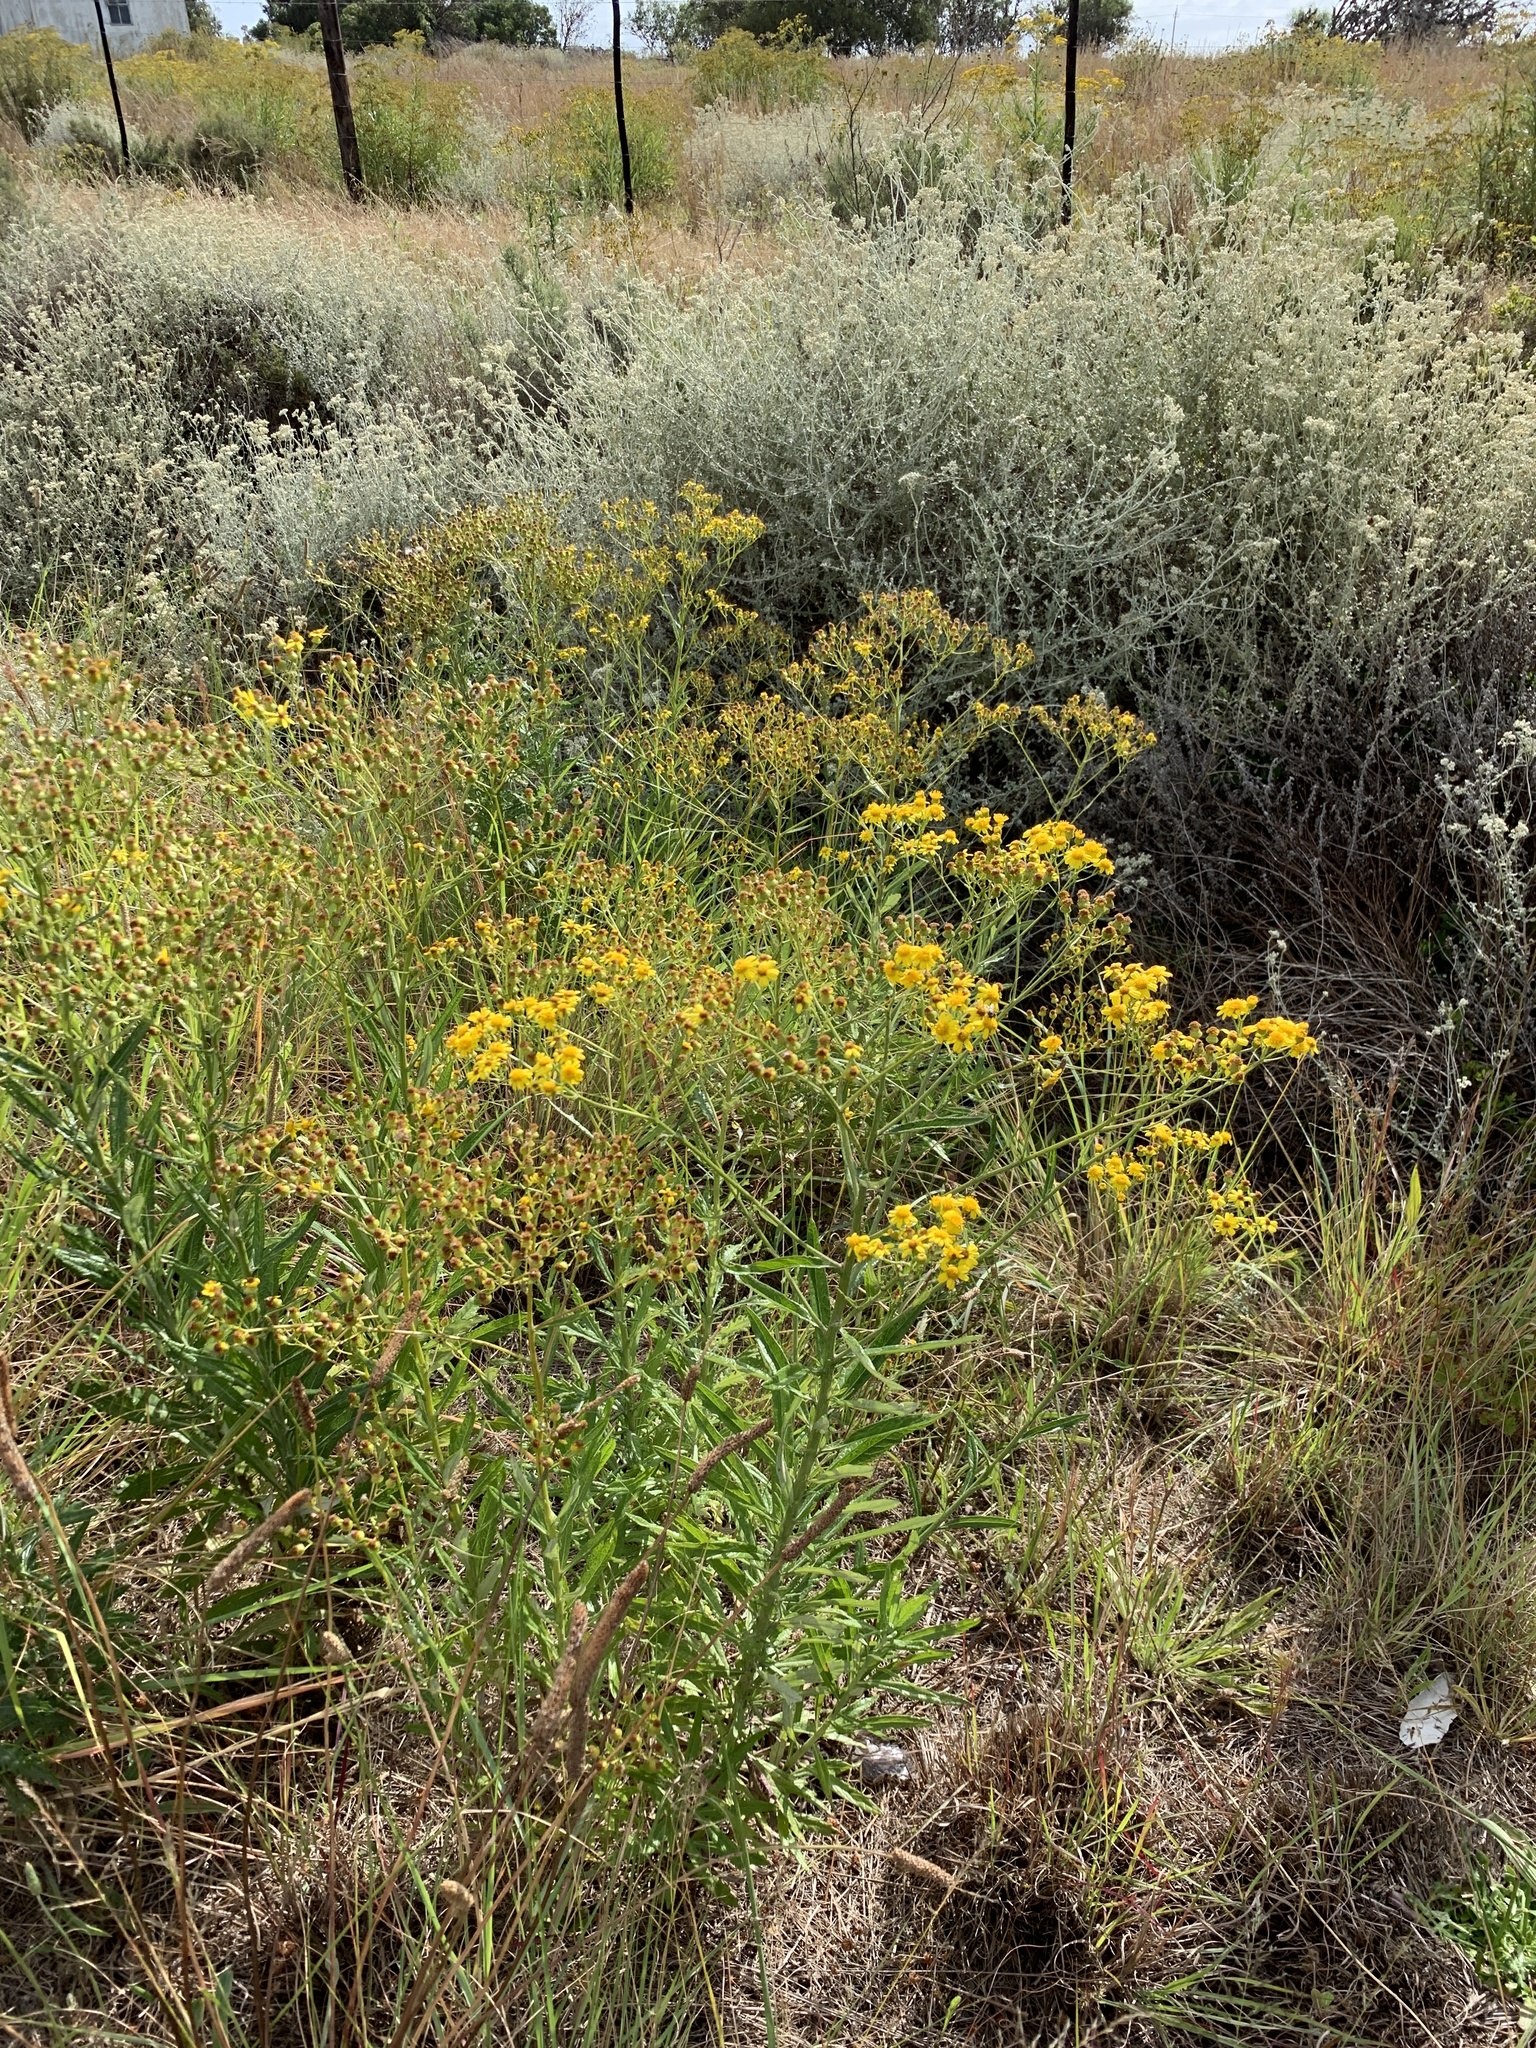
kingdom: Plantae
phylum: Tracheophyta
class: Magnoliopsida
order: Asterales
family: Asteraceae
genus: Senecio
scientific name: Senecio pterophorus
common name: Shoddy ragwort
